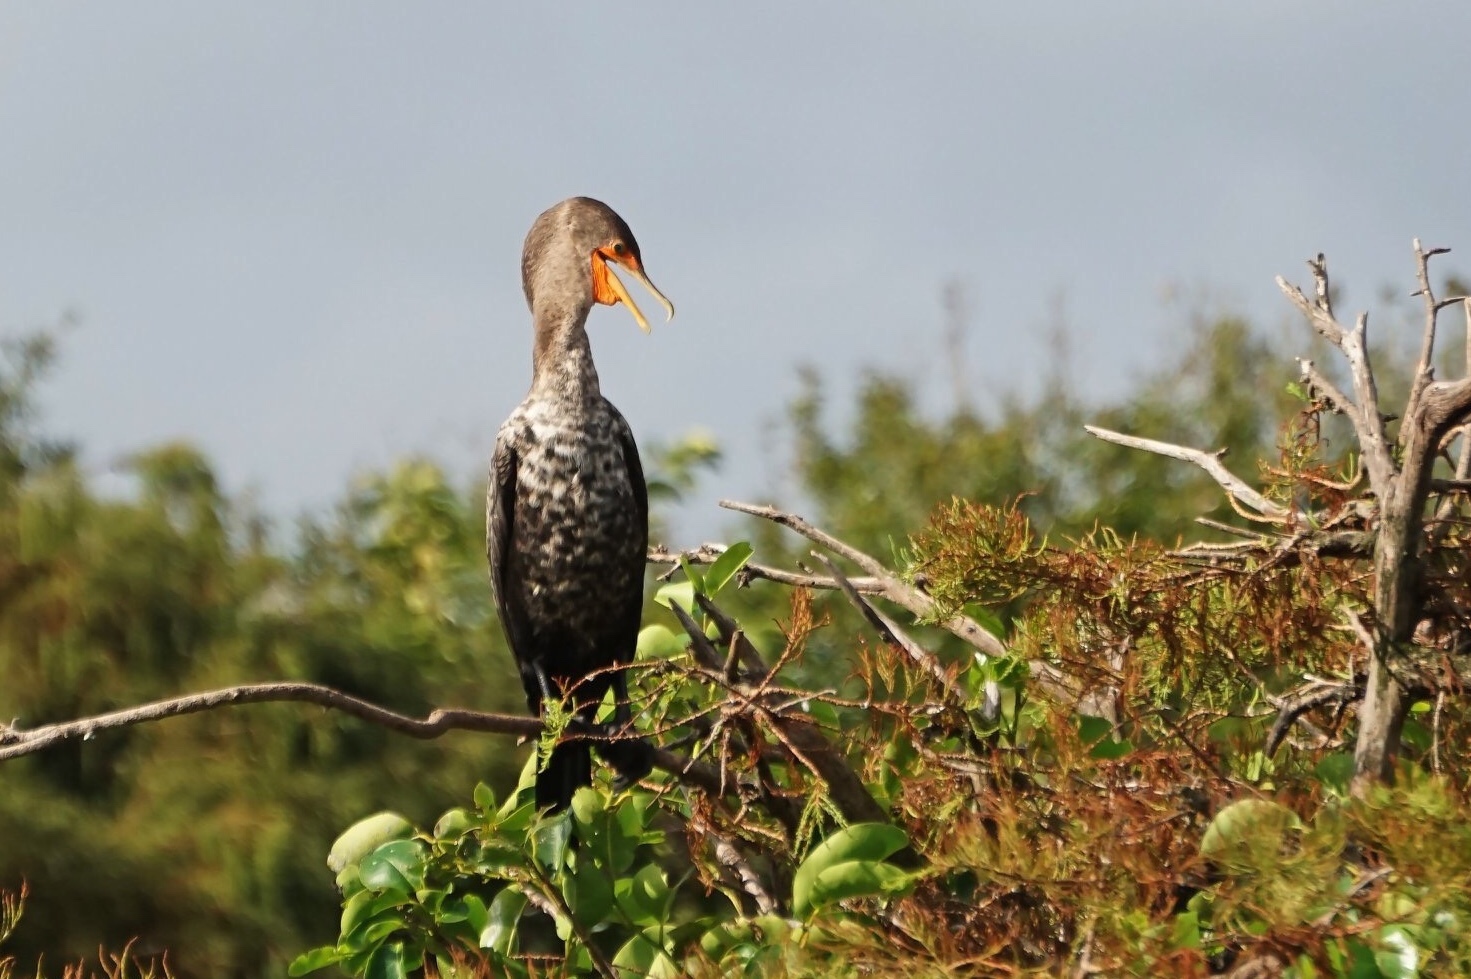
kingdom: Animalia
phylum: Chordata
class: Aves
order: Suliformes
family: Phalacrocoracidae
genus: Phalacrocorax
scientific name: Phalacrocorax auritus
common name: Double-crested cormorant
